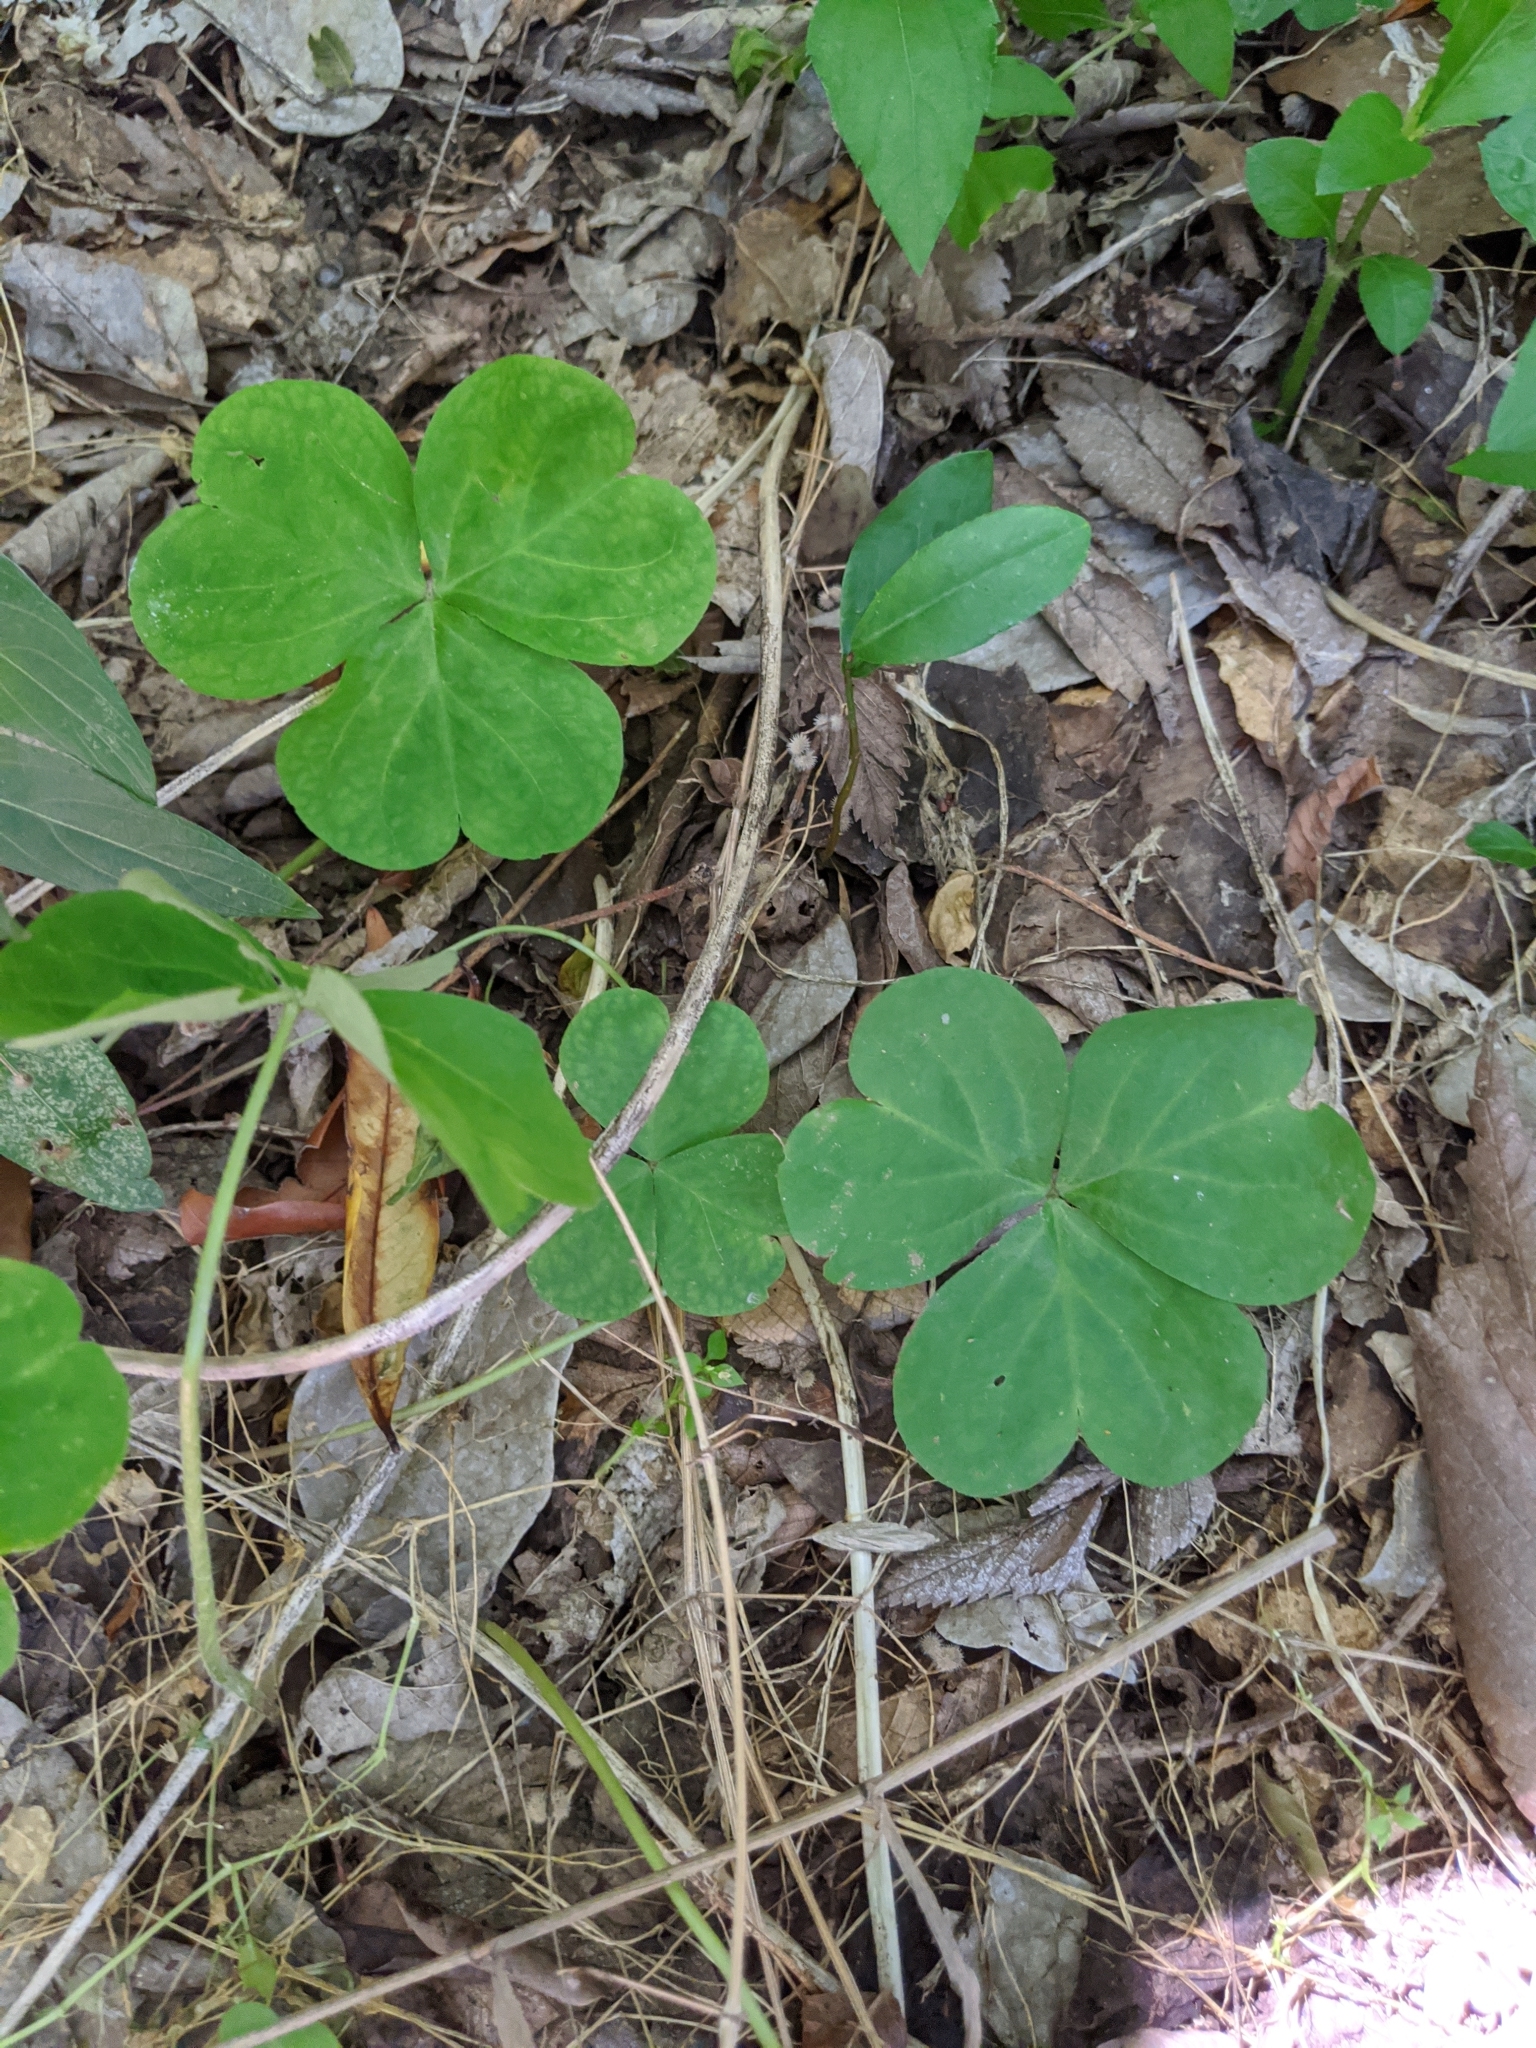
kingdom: Plantae
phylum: Tracheophyta
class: Magnoliopsida
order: Oxalidales
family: Oxalidaceae
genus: Oxalis
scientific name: Oxalis debilis
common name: Large-flowered pink-sorrel
